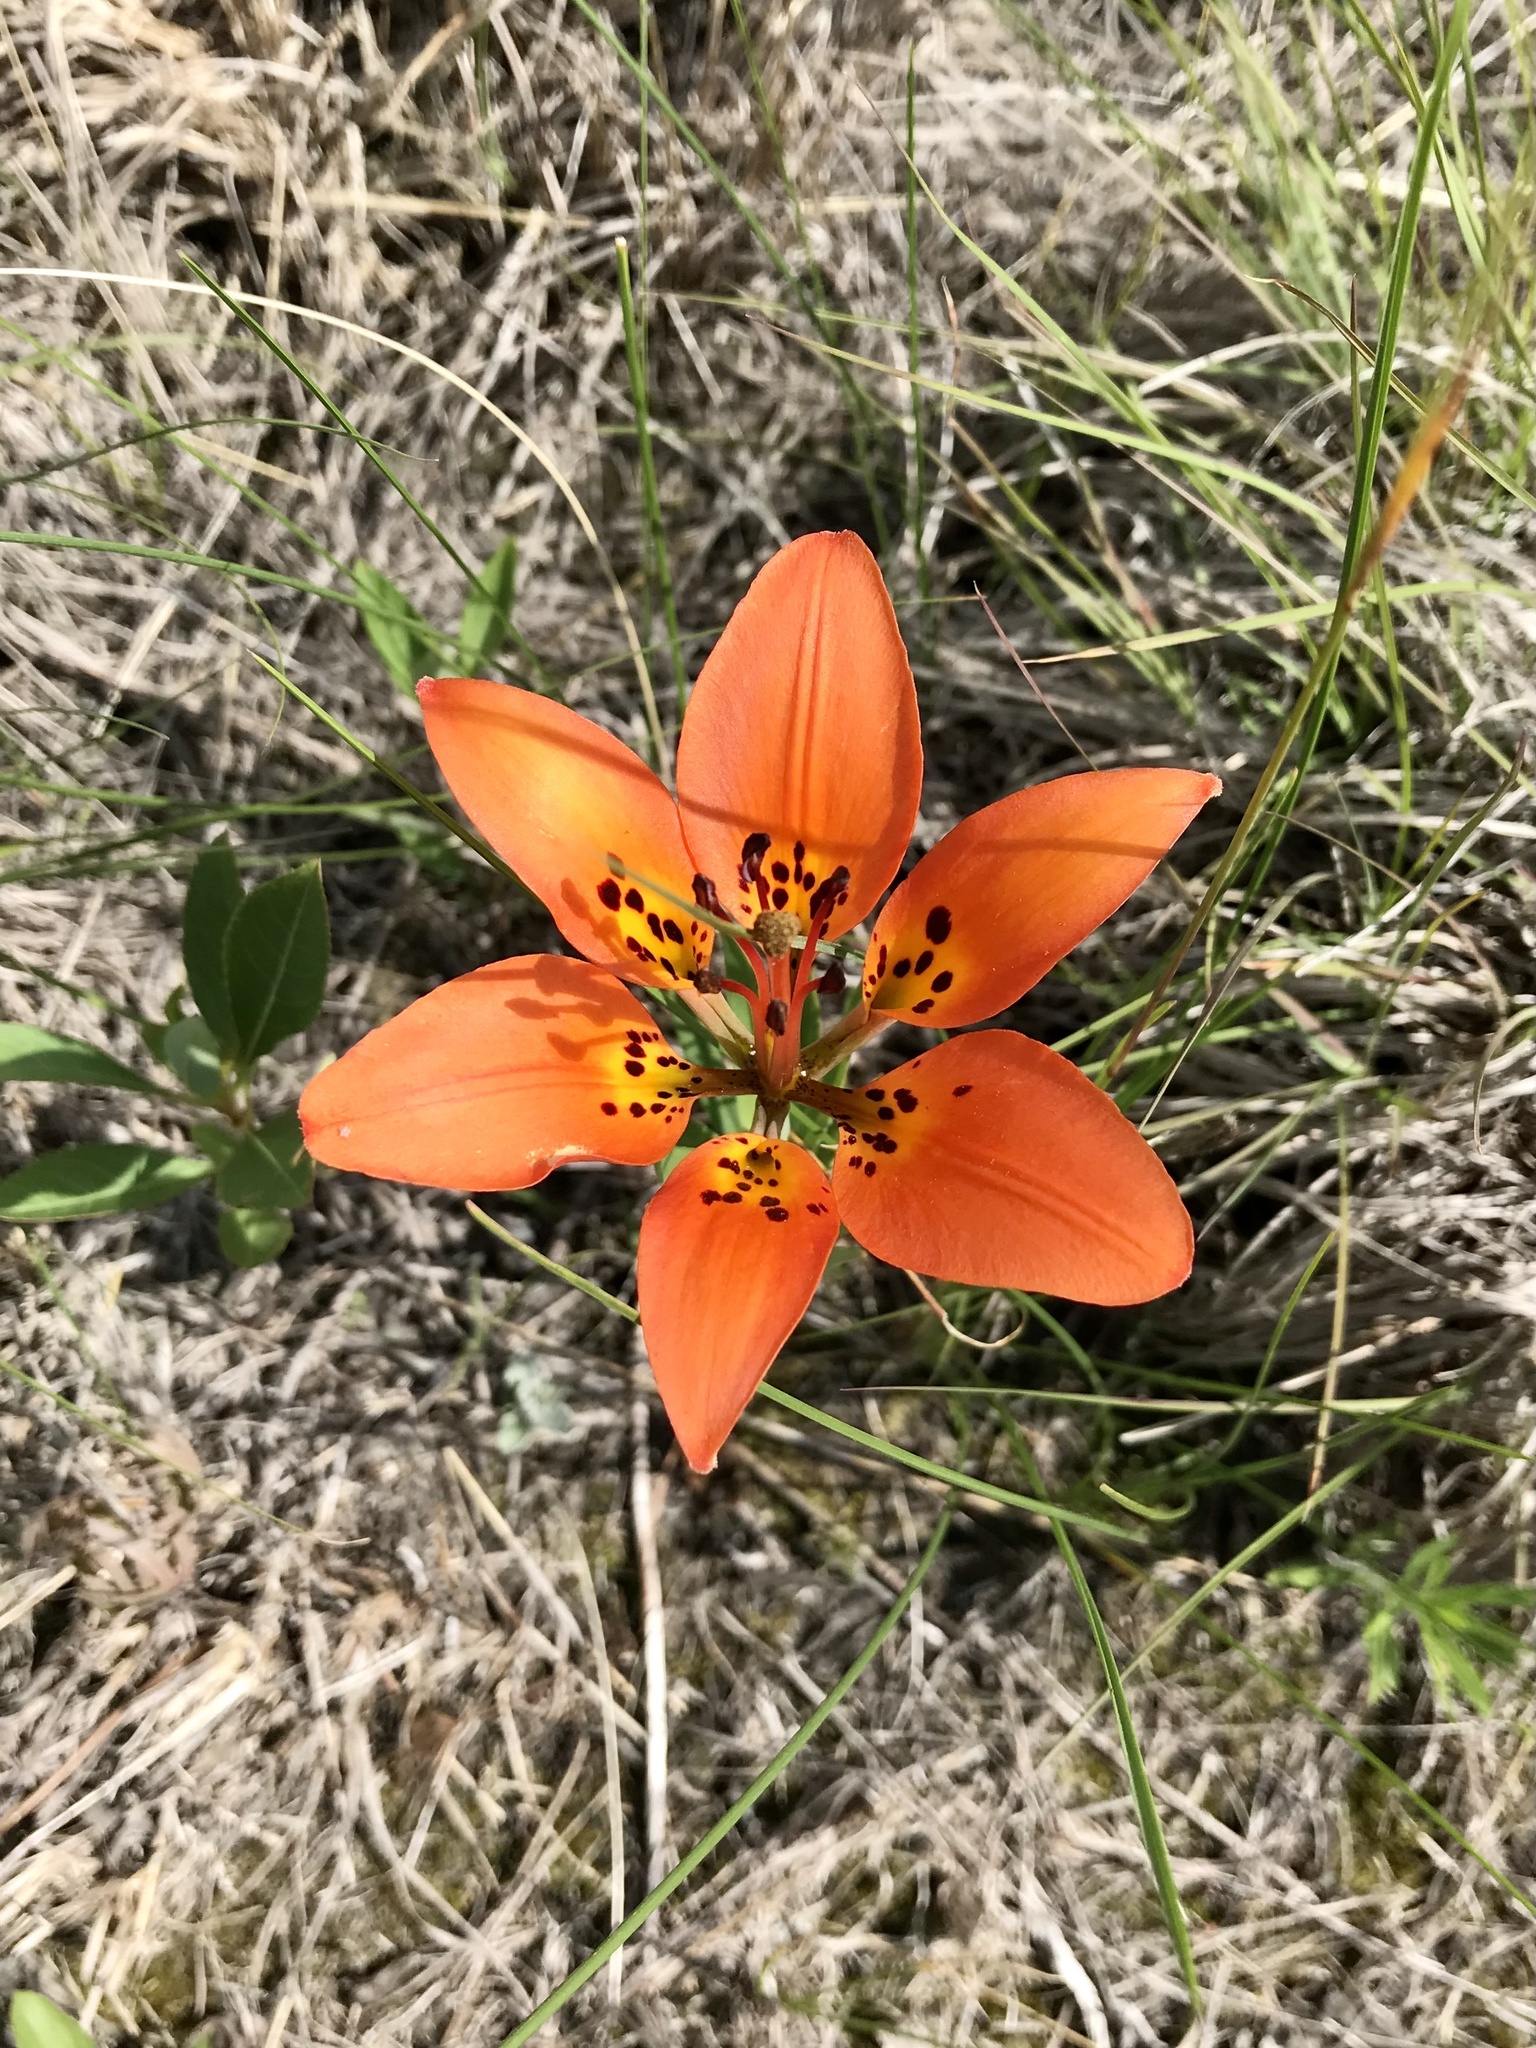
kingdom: Plantae
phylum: Tracheophyta
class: Liliopsida
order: Liliales
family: Liliaceae
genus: Lilium
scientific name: Lilium philadelphicum
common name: Red lily
